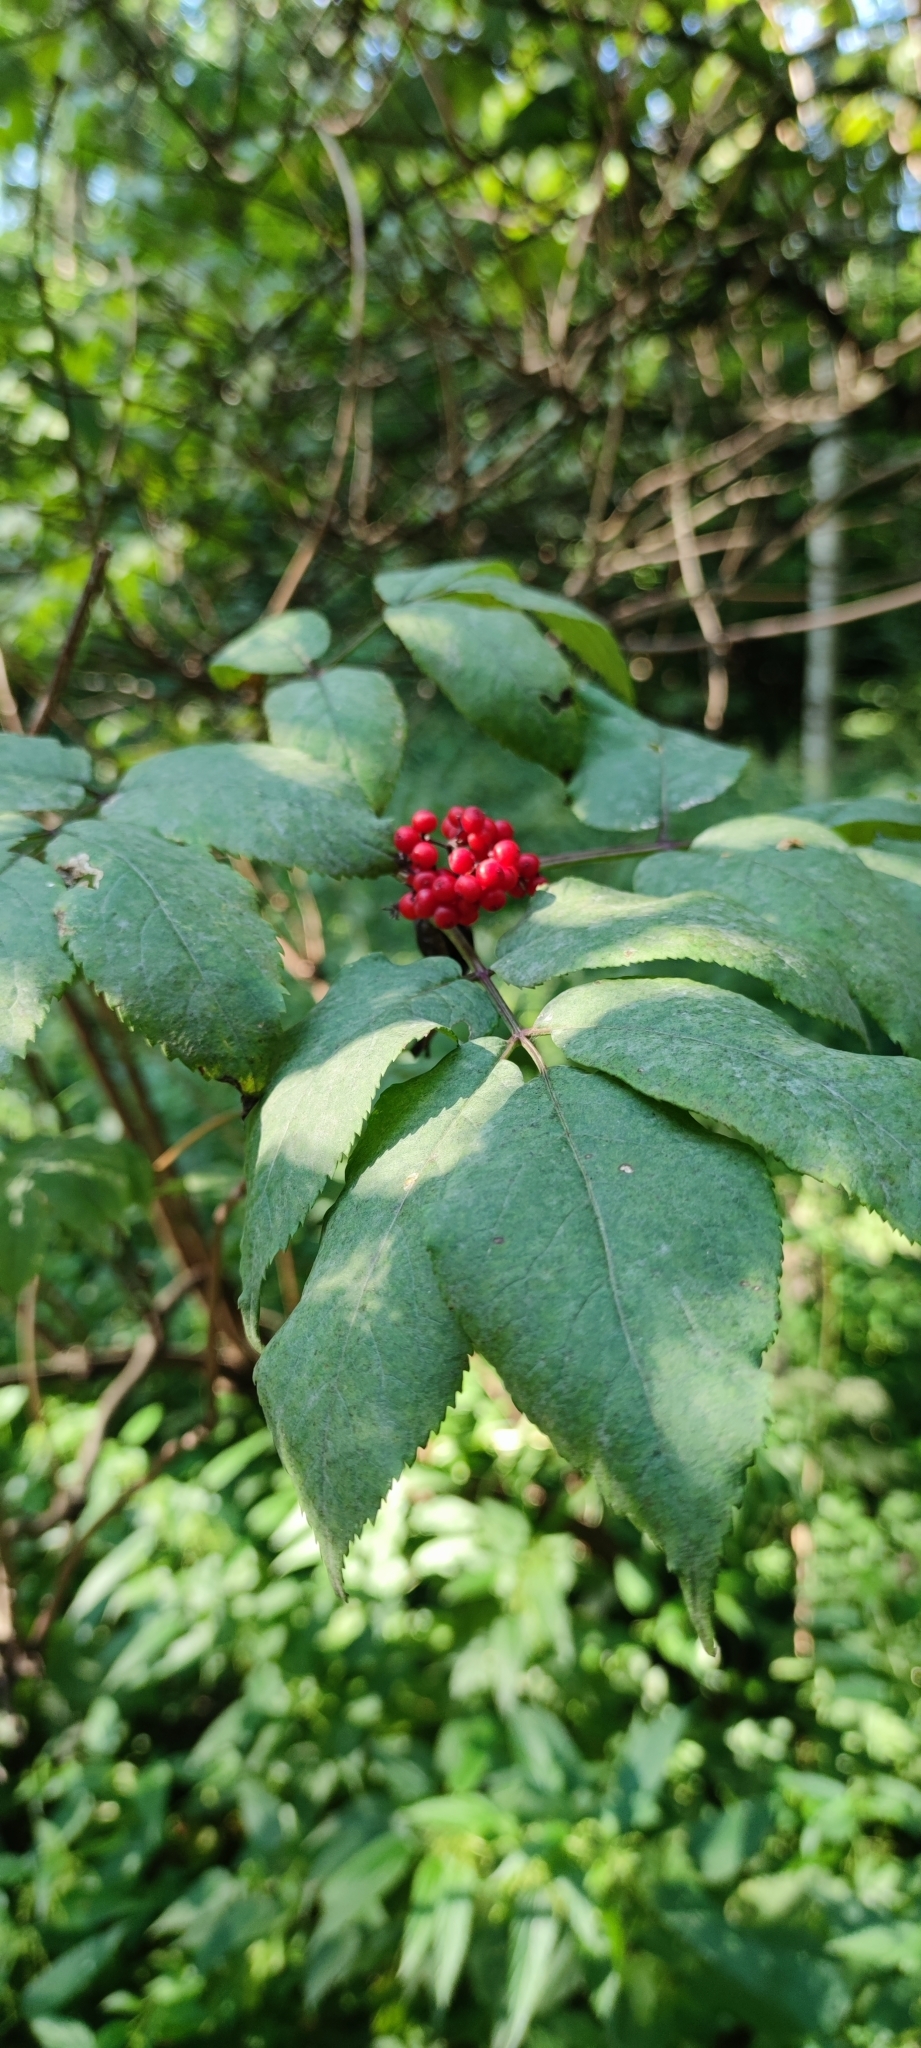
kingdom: Plantae
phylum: Tracheophyta
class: Magnoliopsida
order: Dipsacales
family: Viburnaceae
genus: Sambucus
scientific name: Sambucus racemosa
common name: Red-berried elder
